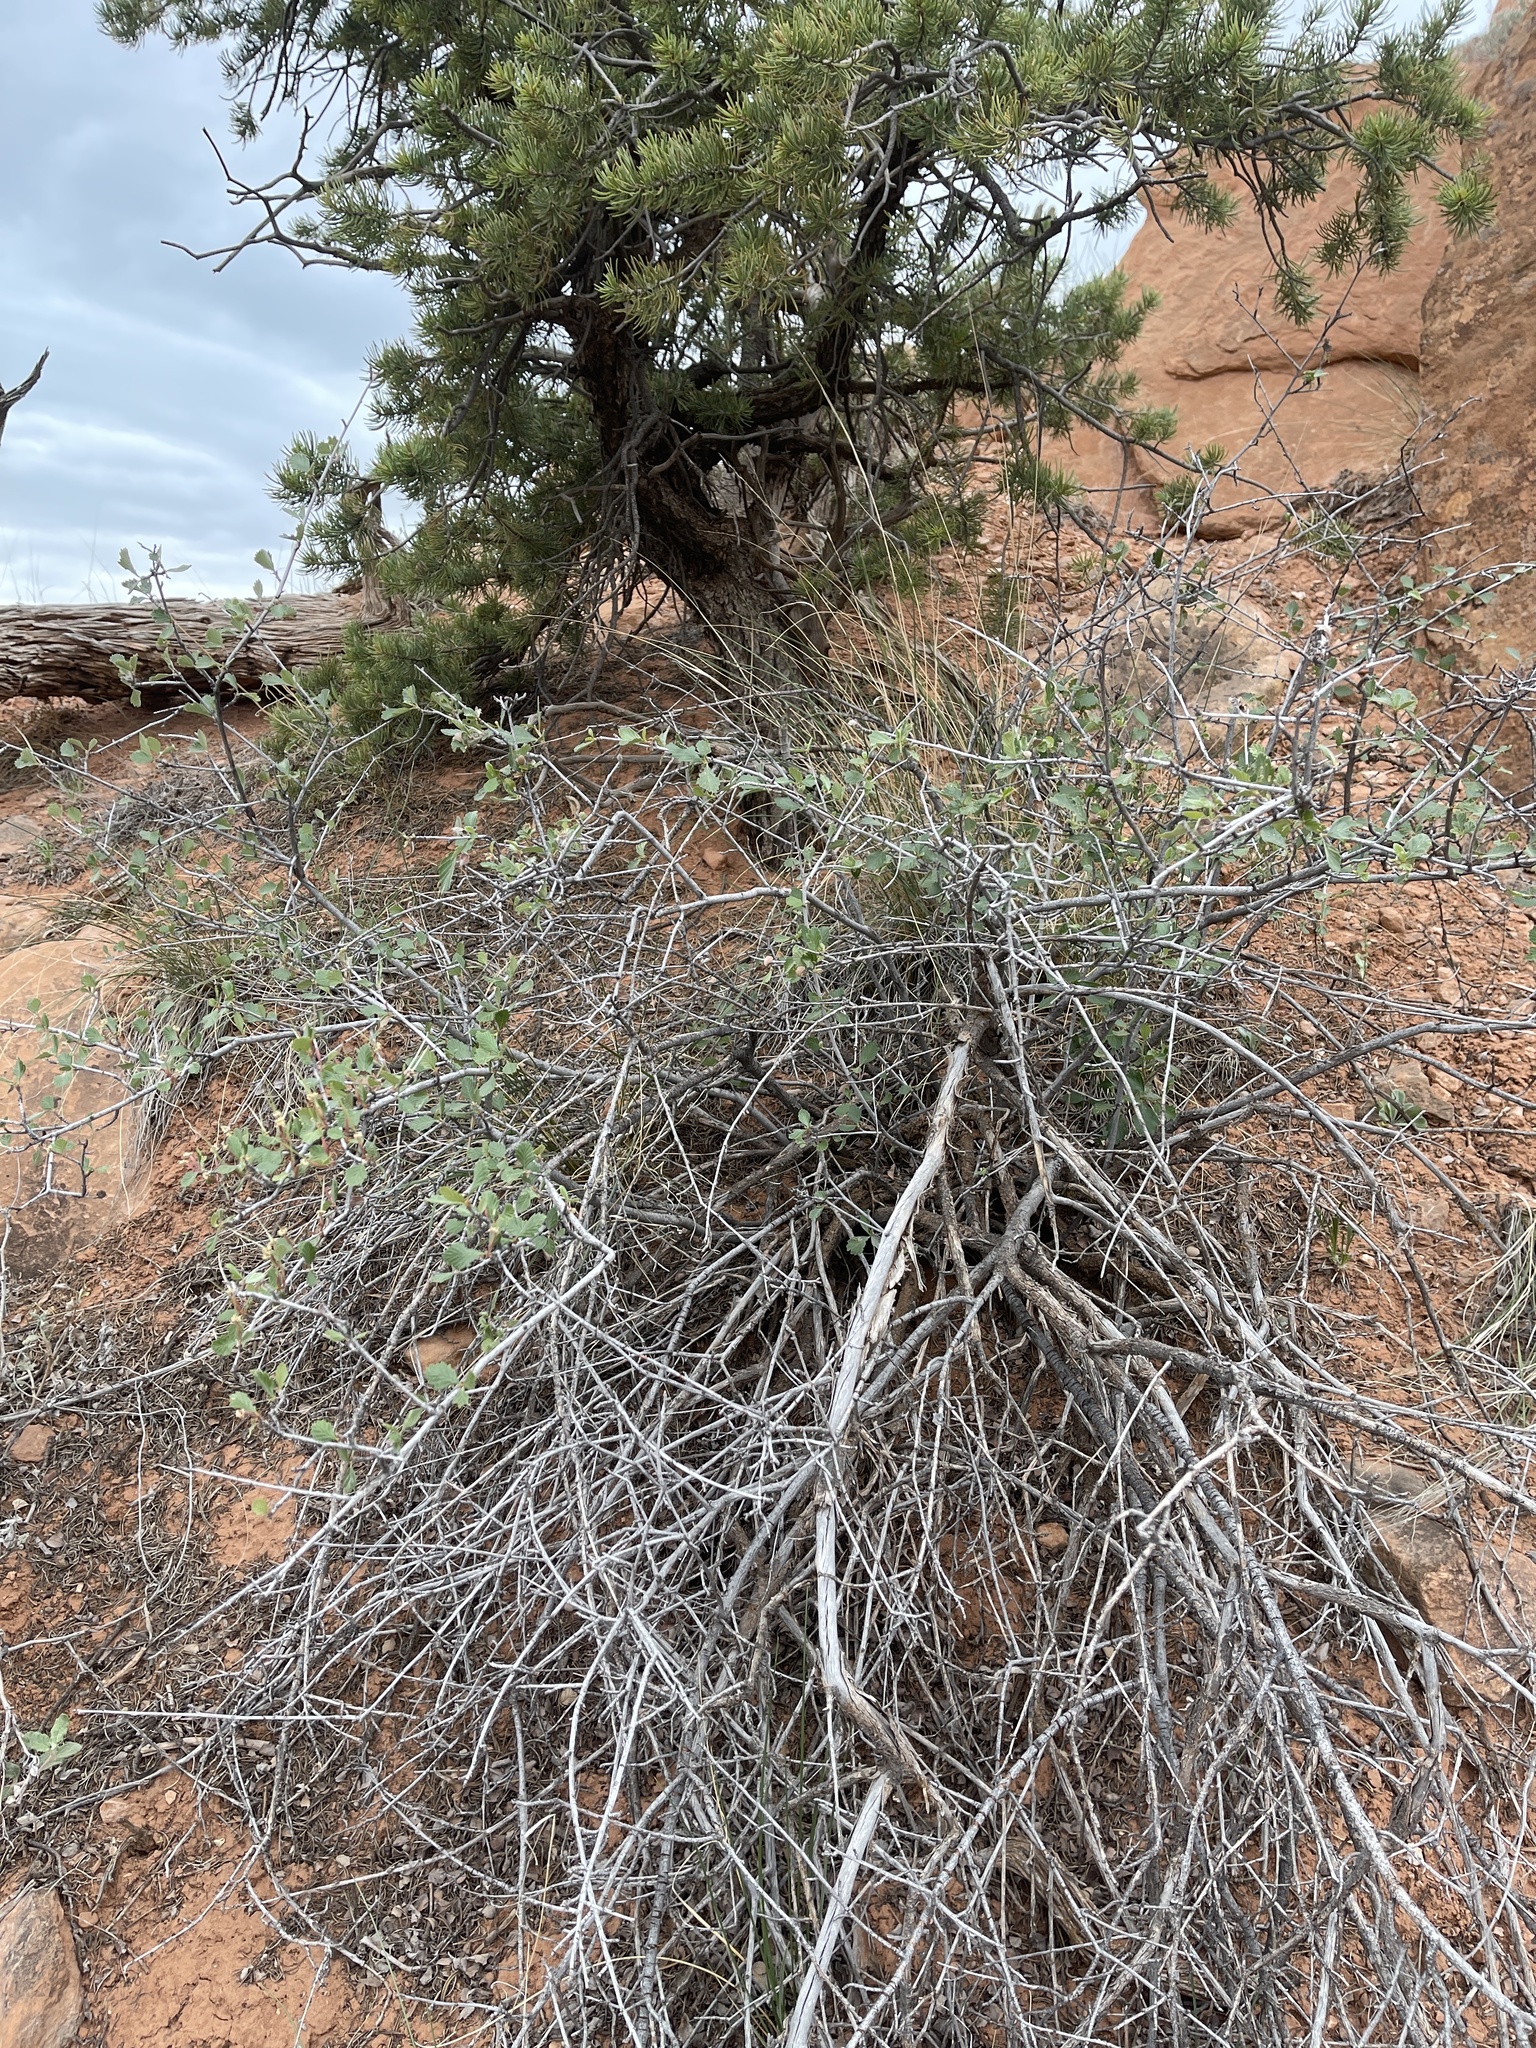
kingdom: Plantae
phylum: Tracheophyta
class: Magnoliopsida
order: Rosales
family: Rosaceae
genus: Cercocarpus
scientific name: Cercocarpus montanus
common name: Alder-leaf cercocarpus
